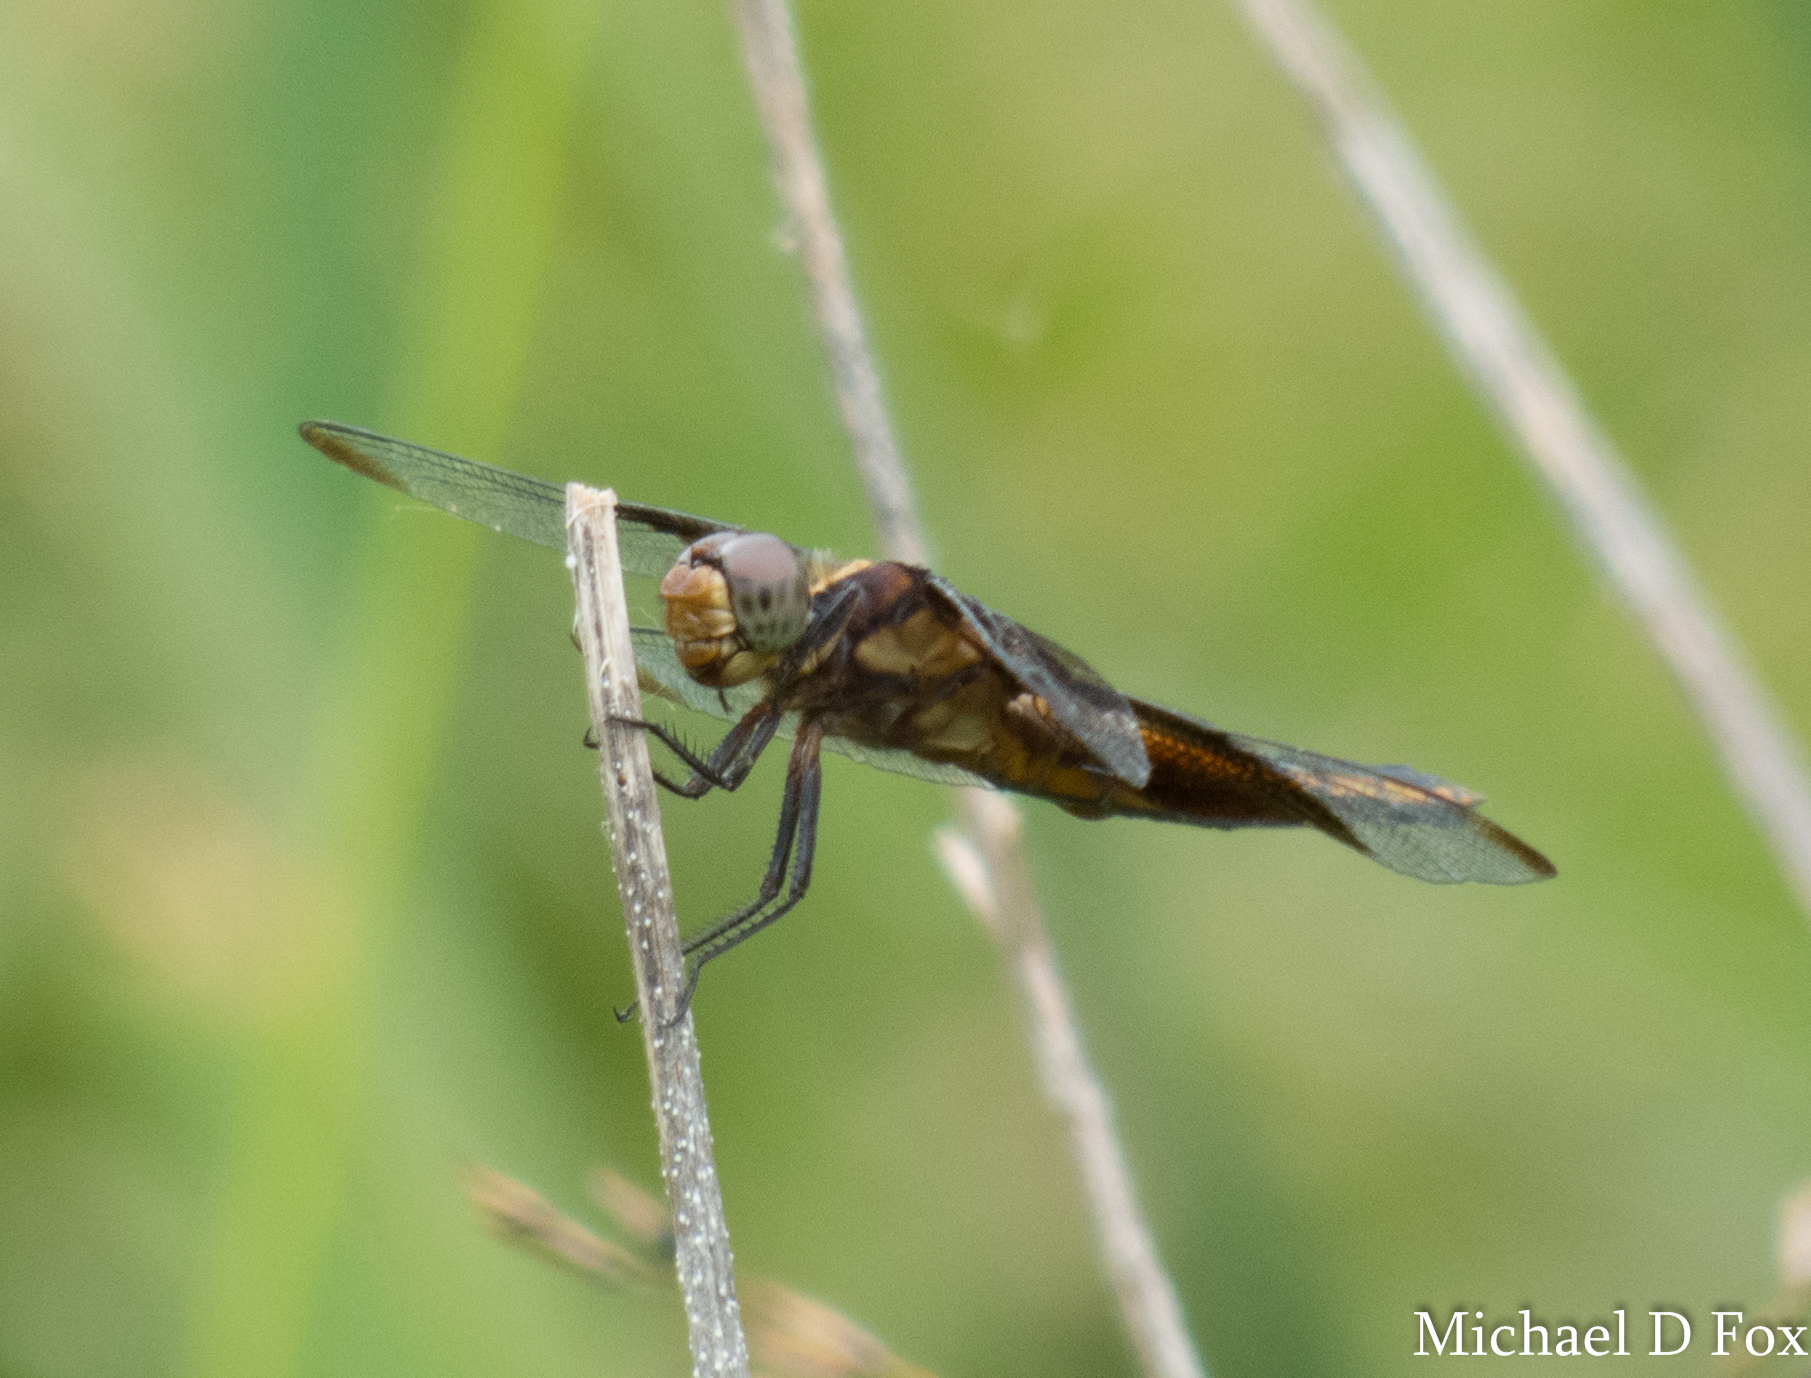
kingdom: Animalia
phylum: Arthropoda
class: Insecta
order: Odonata
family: Libellulidae
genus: Libellula
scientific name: Libellula luctuosa
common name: Widow skimmer
